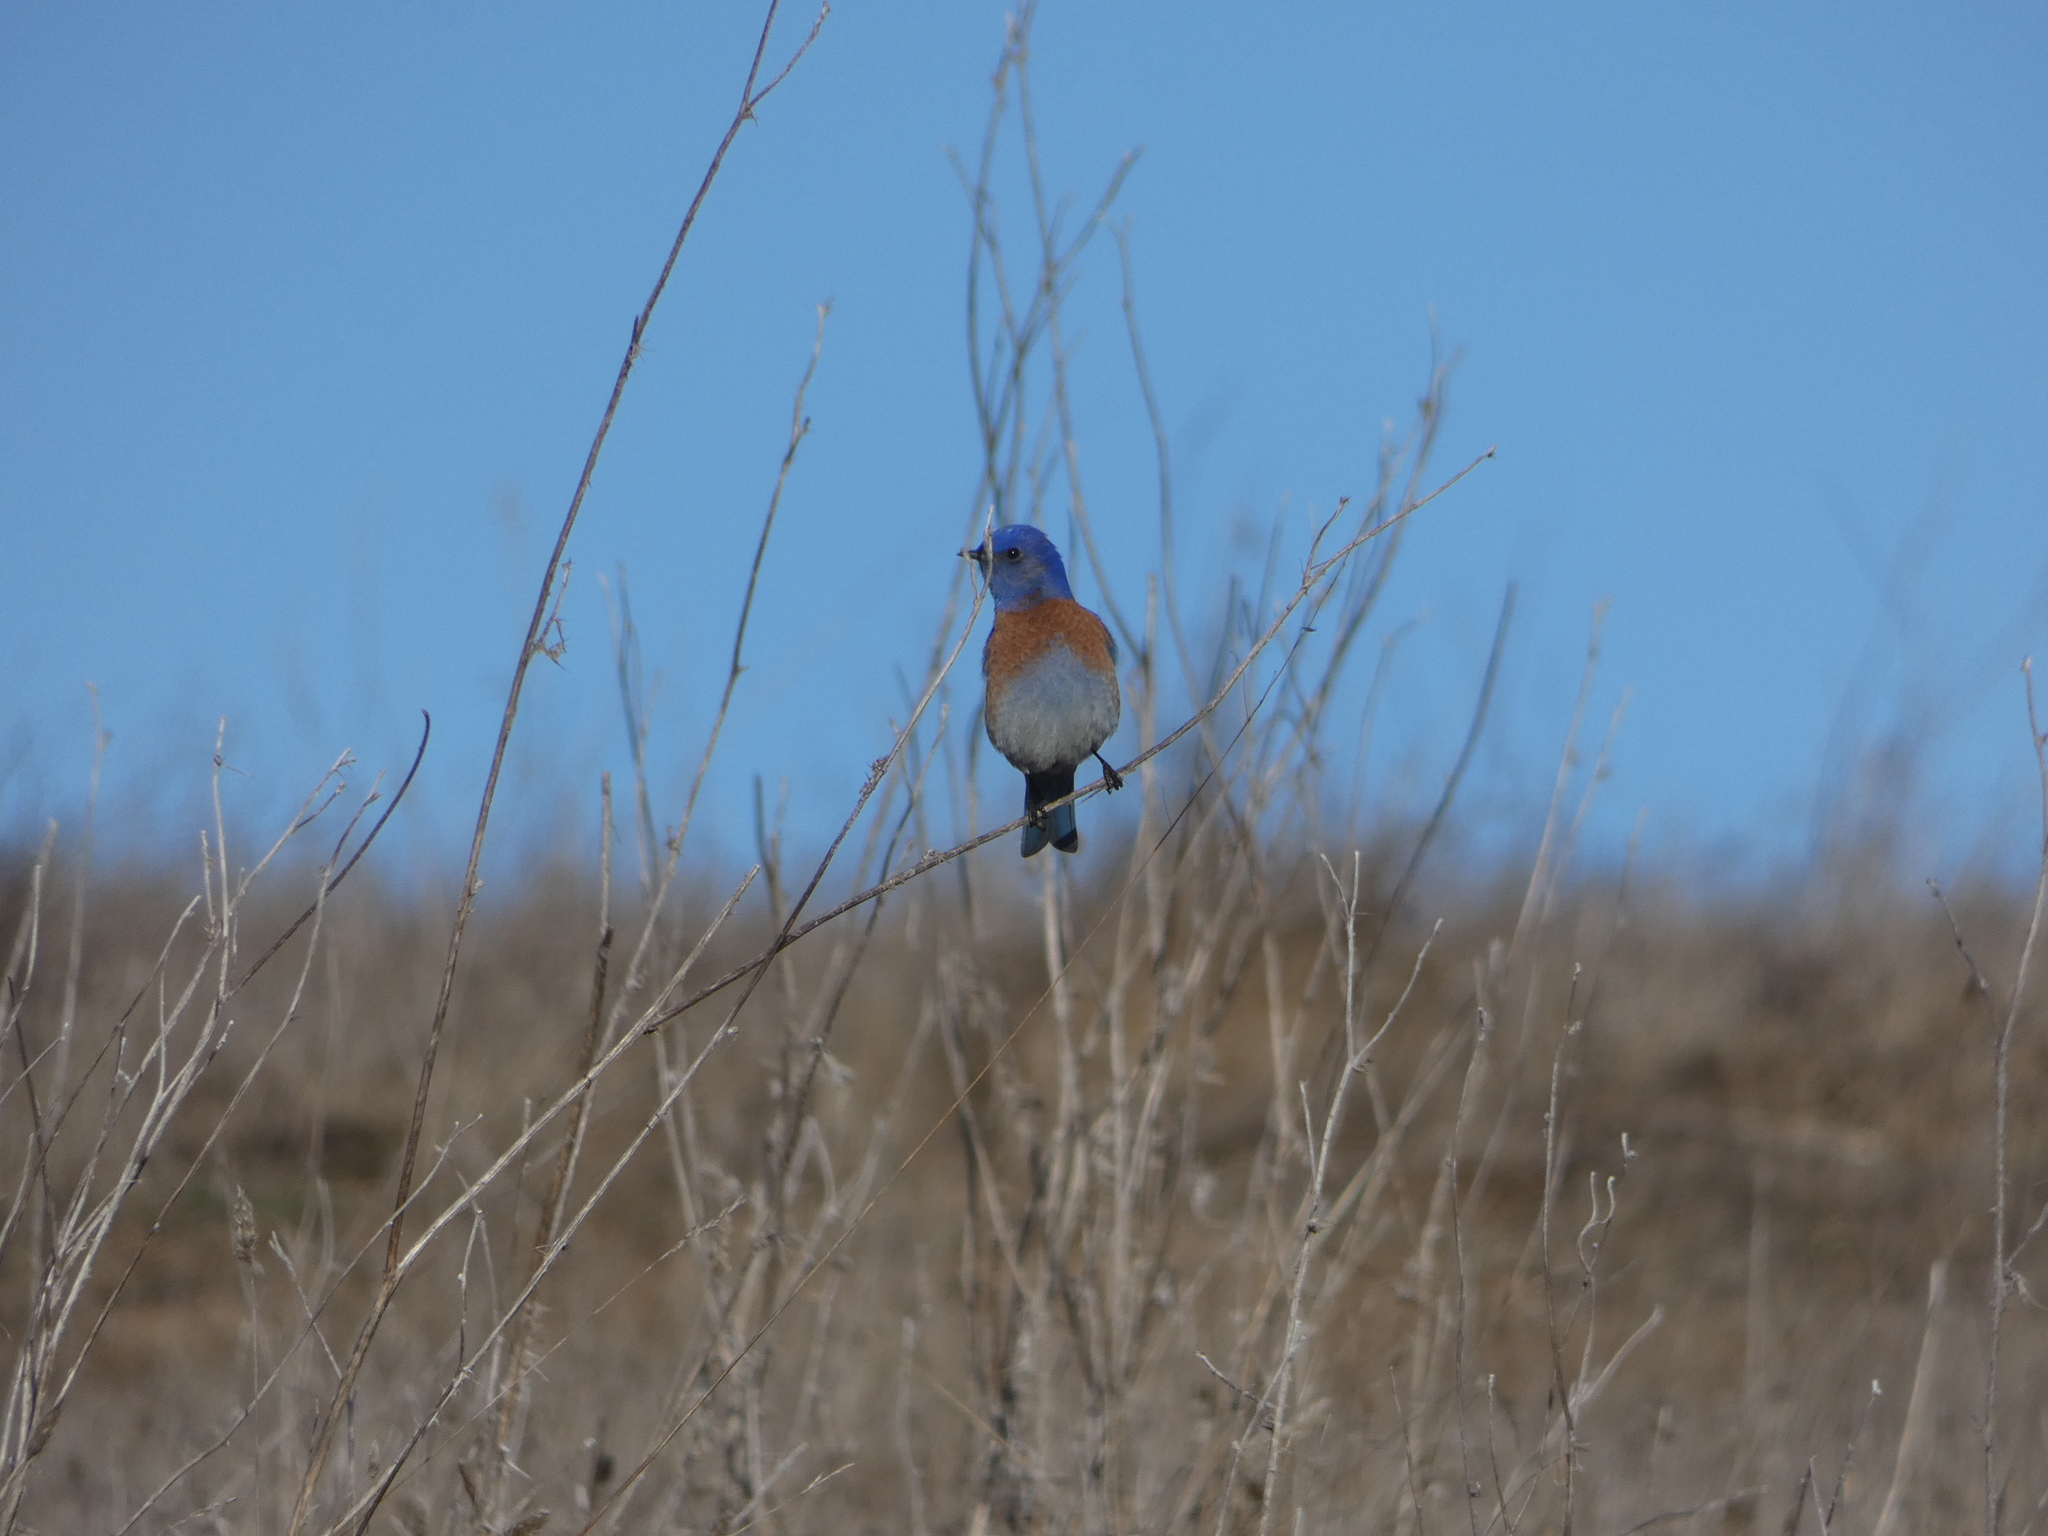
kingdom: Animalia
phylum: Chordata
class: Aves
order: Passeriformes
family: Turdidae
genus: Sialia
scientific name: Sialia mexicana
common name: Western bluebird
